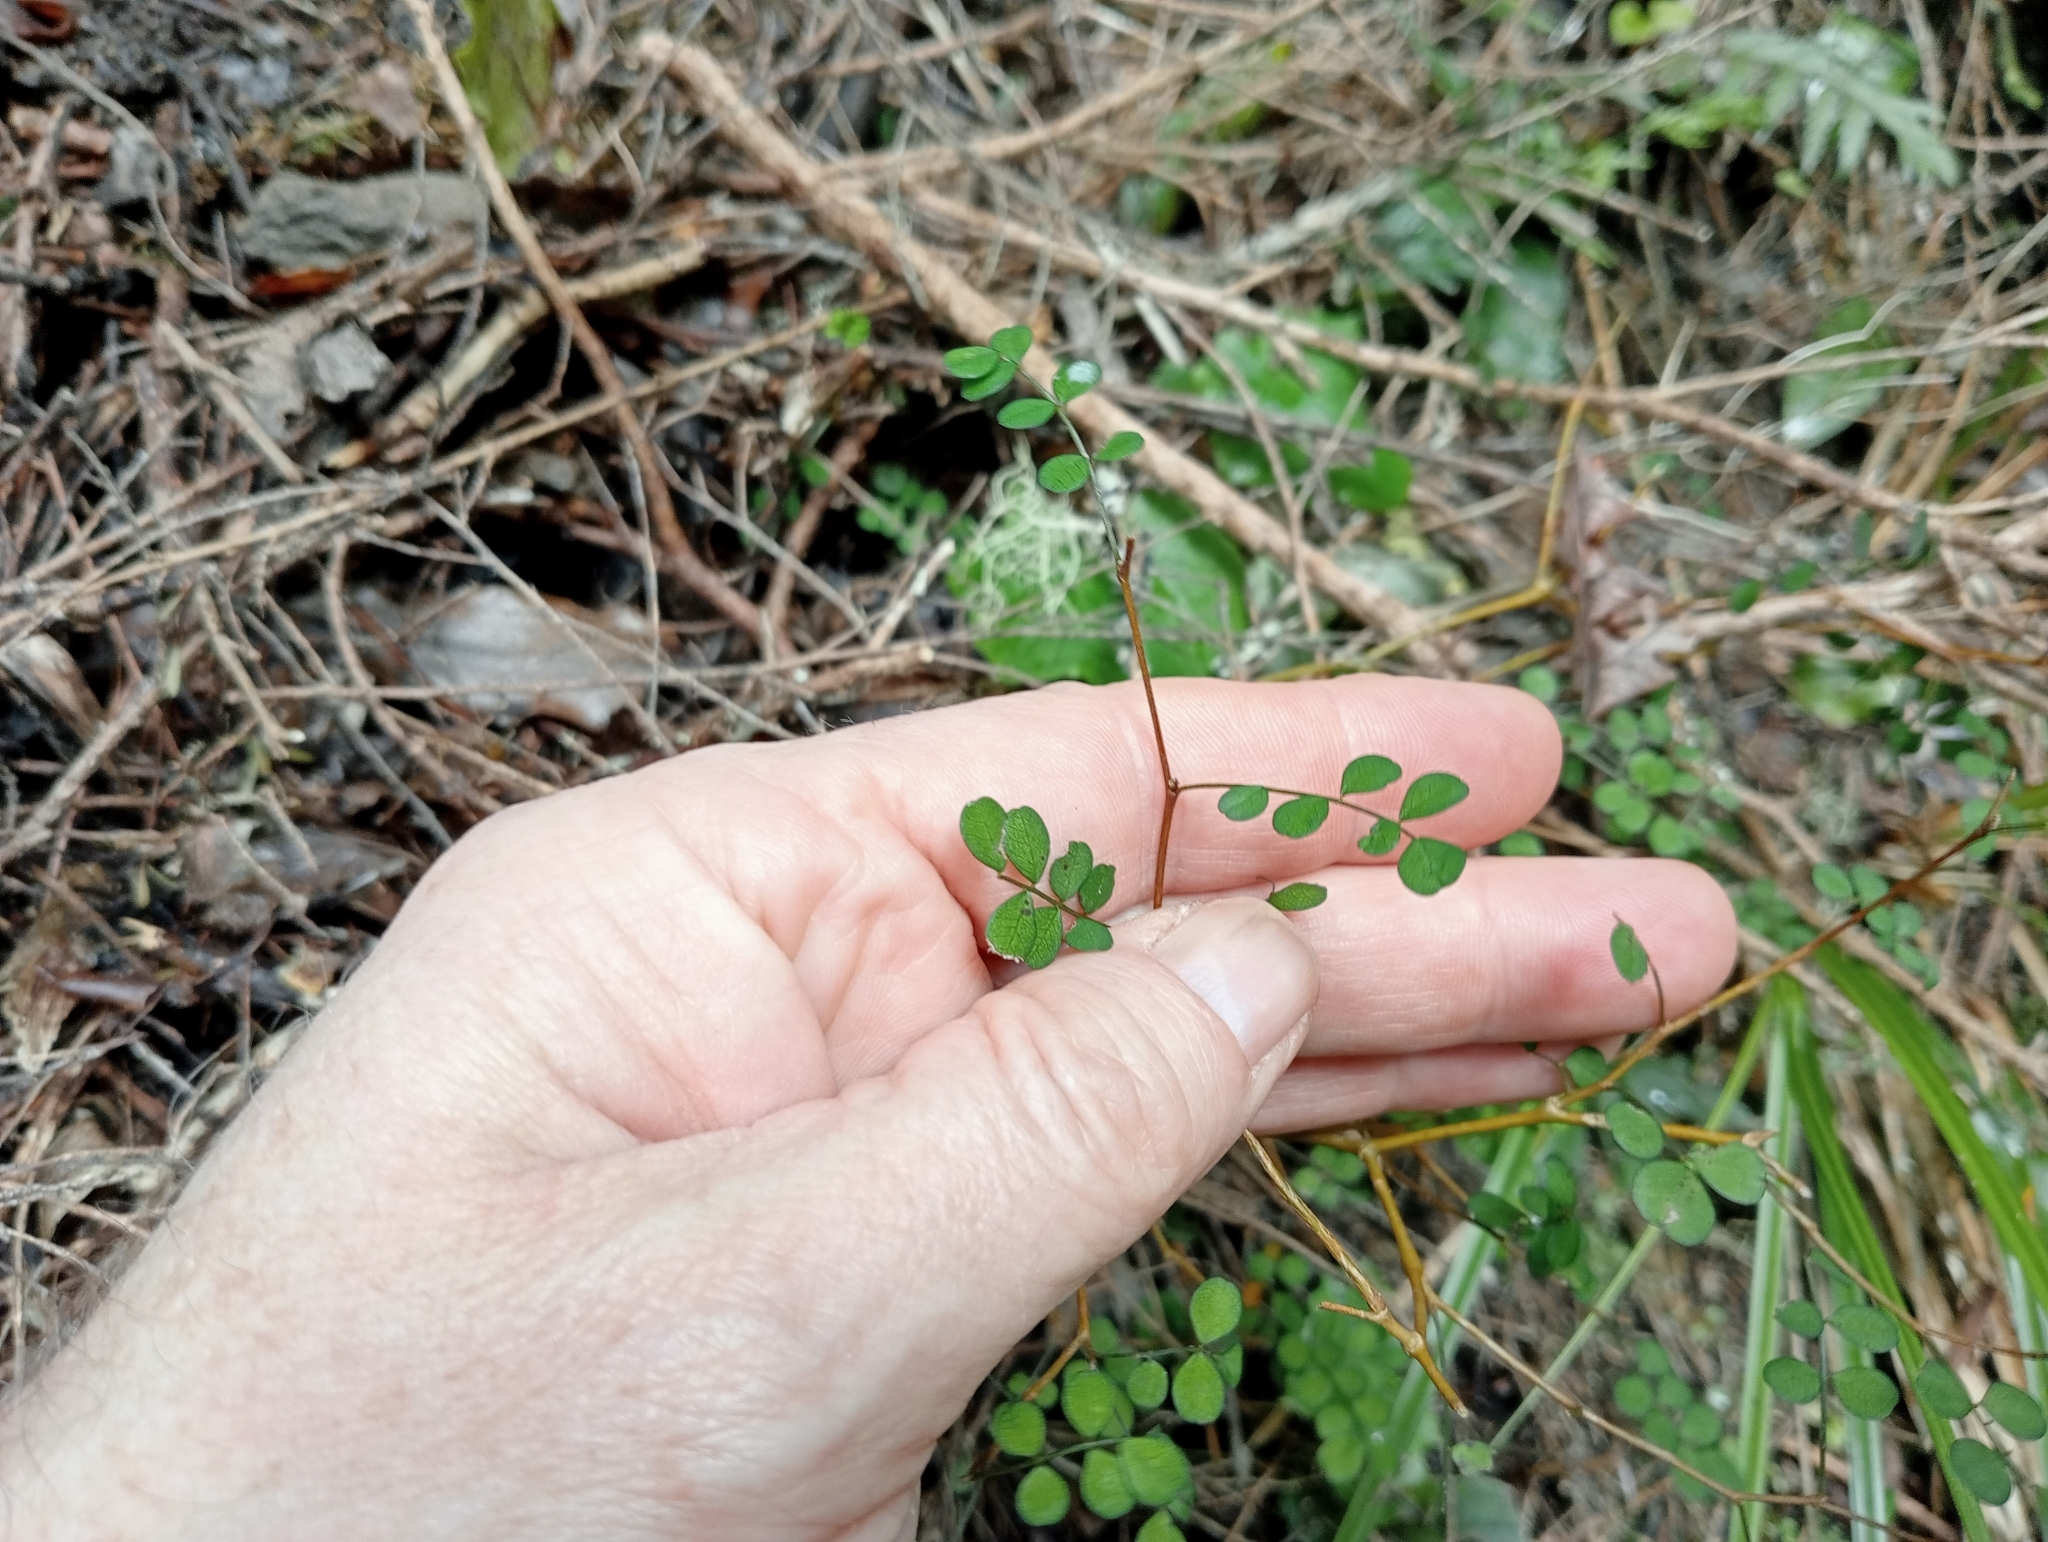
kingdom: Plantae
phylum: Tracheophyta
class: Magnoliopsida
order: Fabales
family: Fabaceae
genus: Sophora
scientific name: Sophora microphylla
